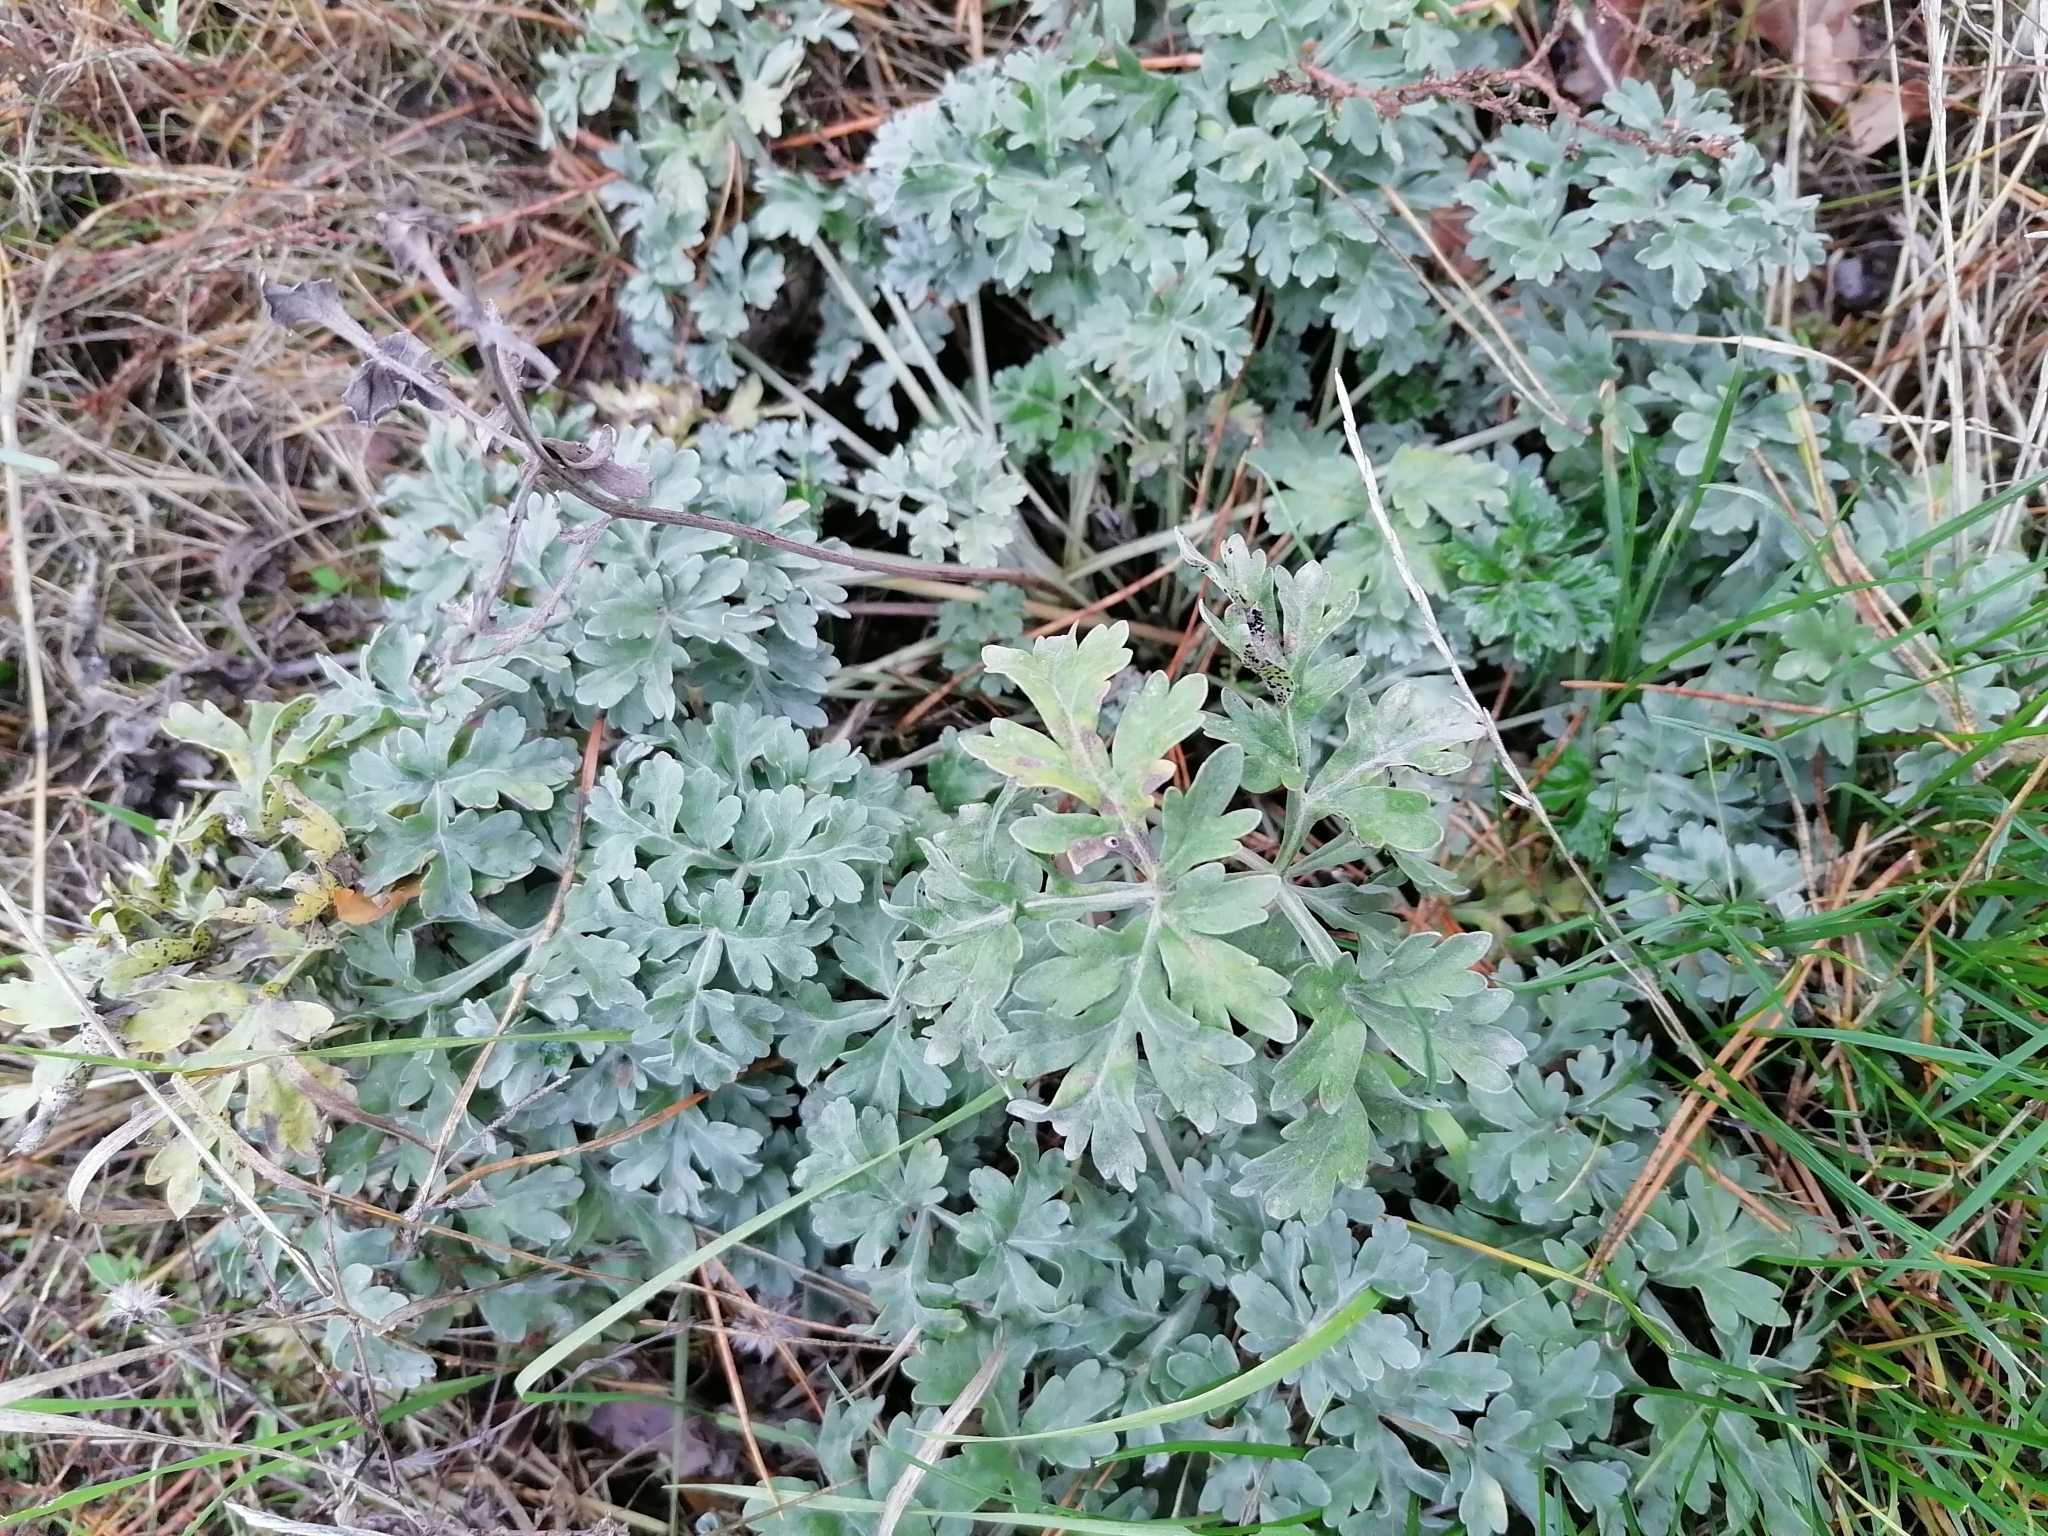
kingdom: Plantae
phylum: Tracheophyta
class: Magnoliopsida
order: Asterales
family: Asteraceae
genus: Artemisia
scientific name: Artemisia absinthium
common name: Wormwood
